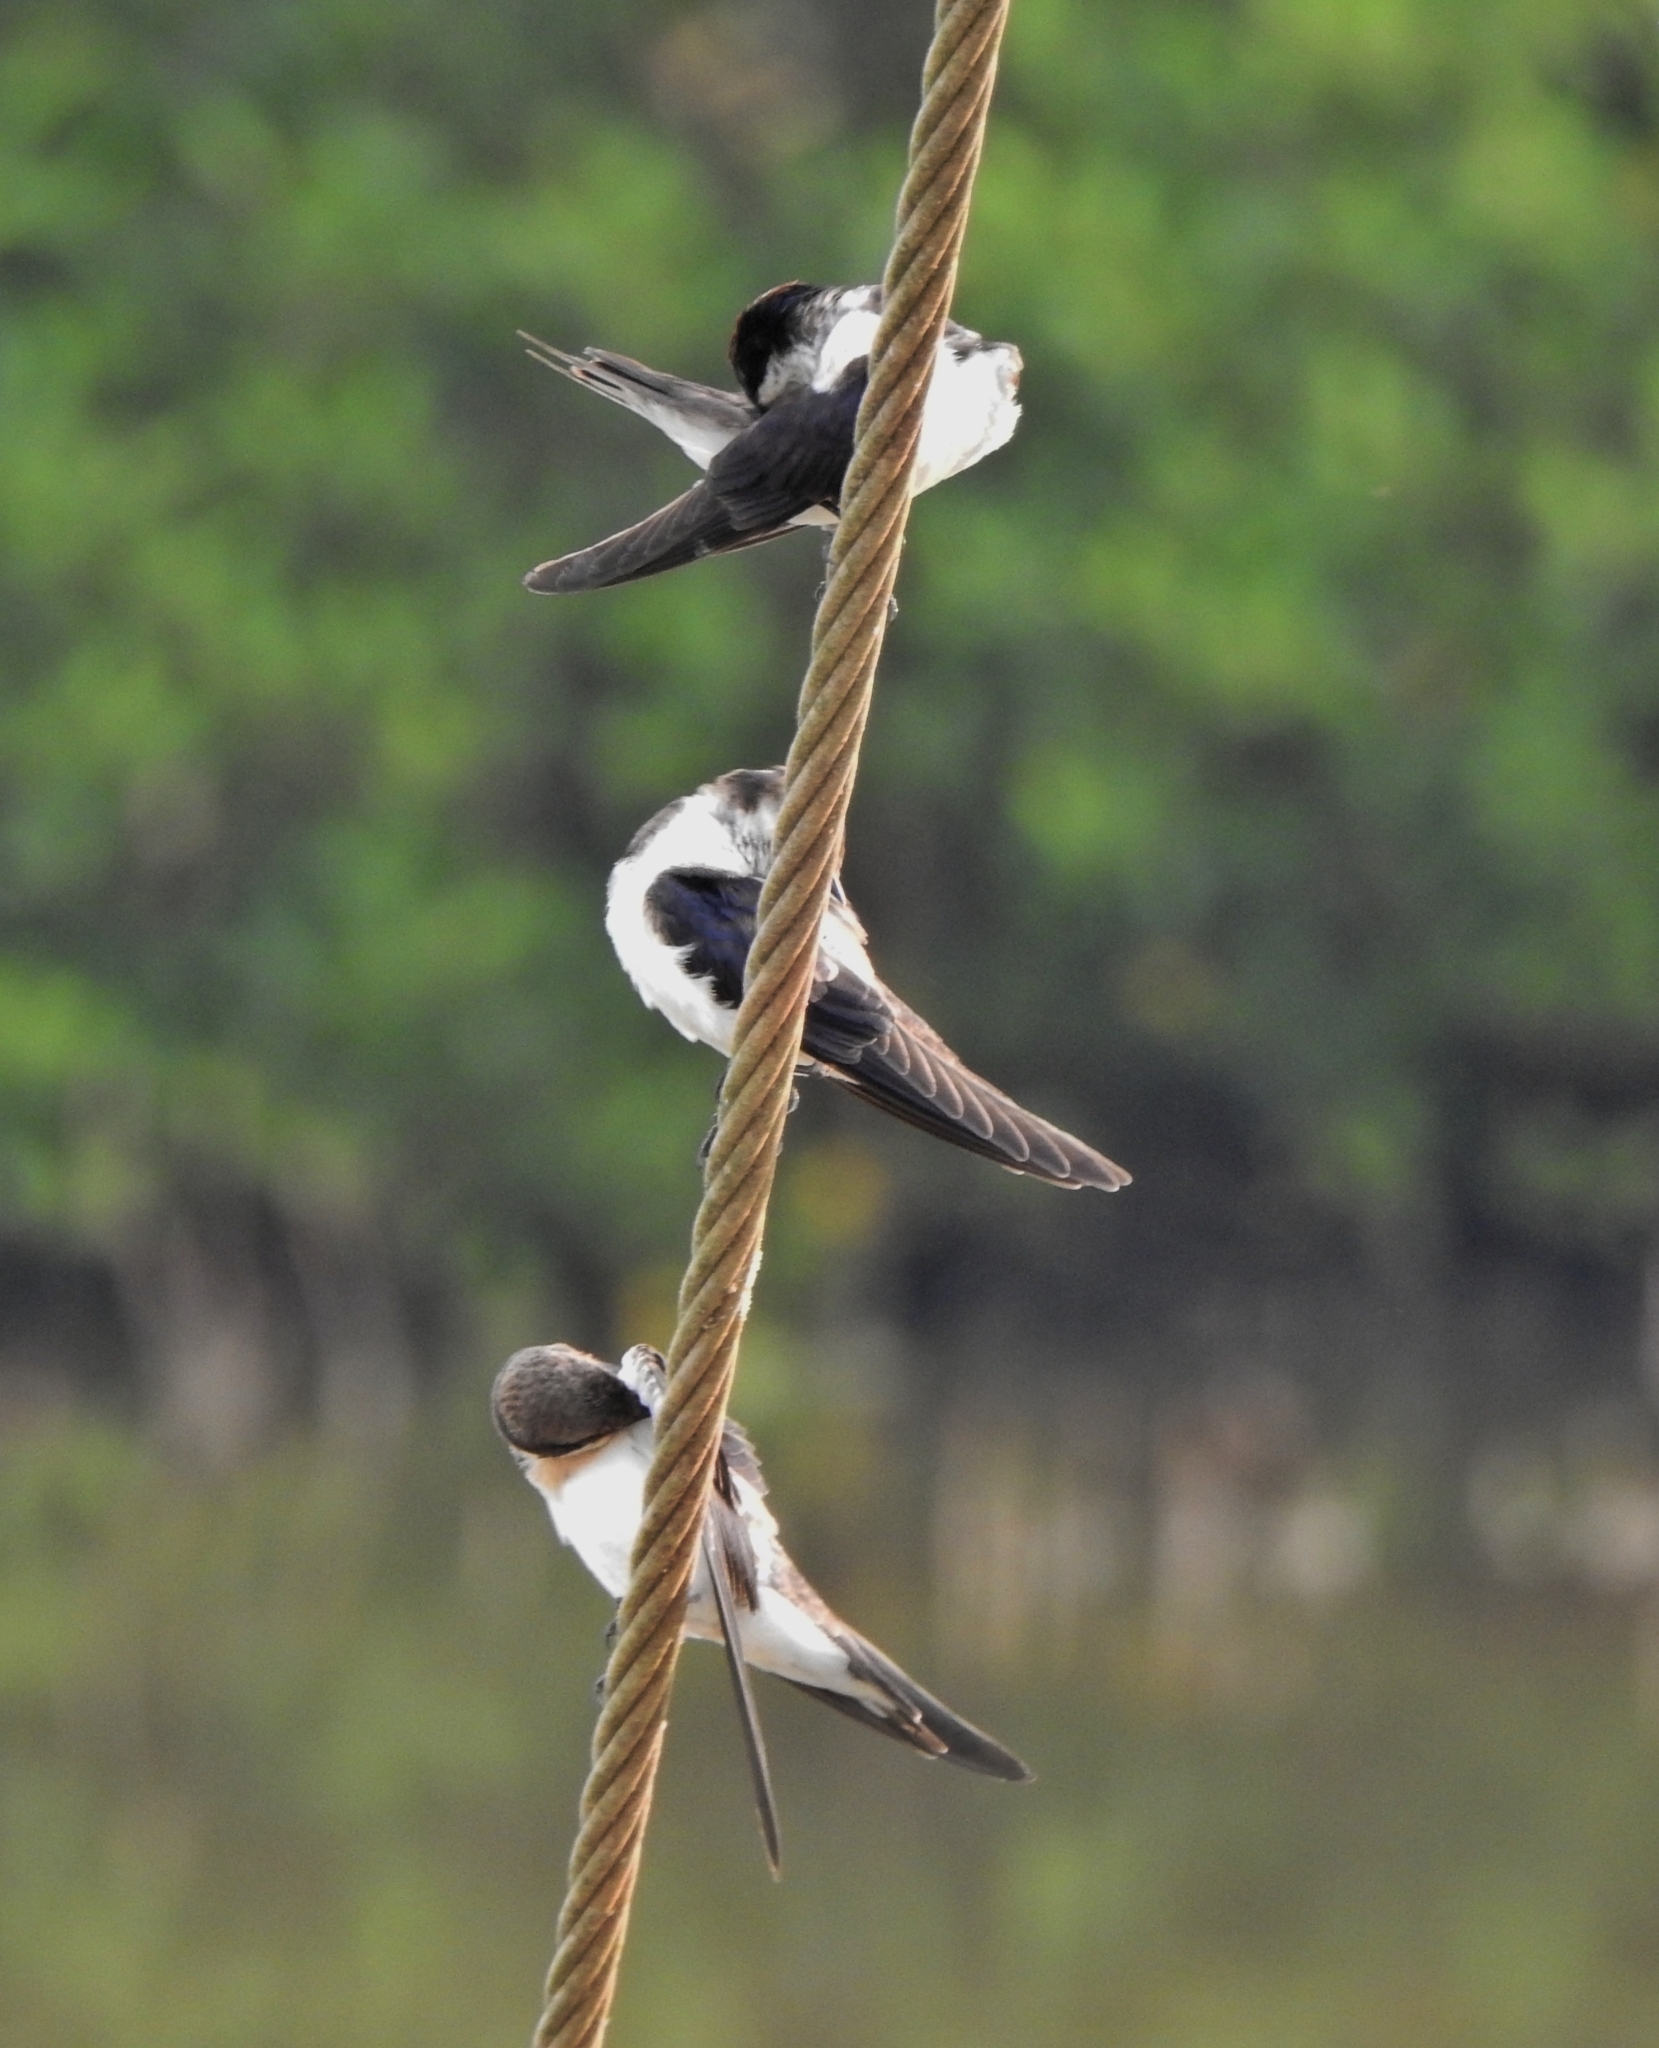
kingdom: Animalia
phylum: Chordata
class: Aves
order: Passeriformes
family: Hirundinidae
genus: Hirundo
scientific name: Hirundo smithii
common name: Wire-tailed swallow
